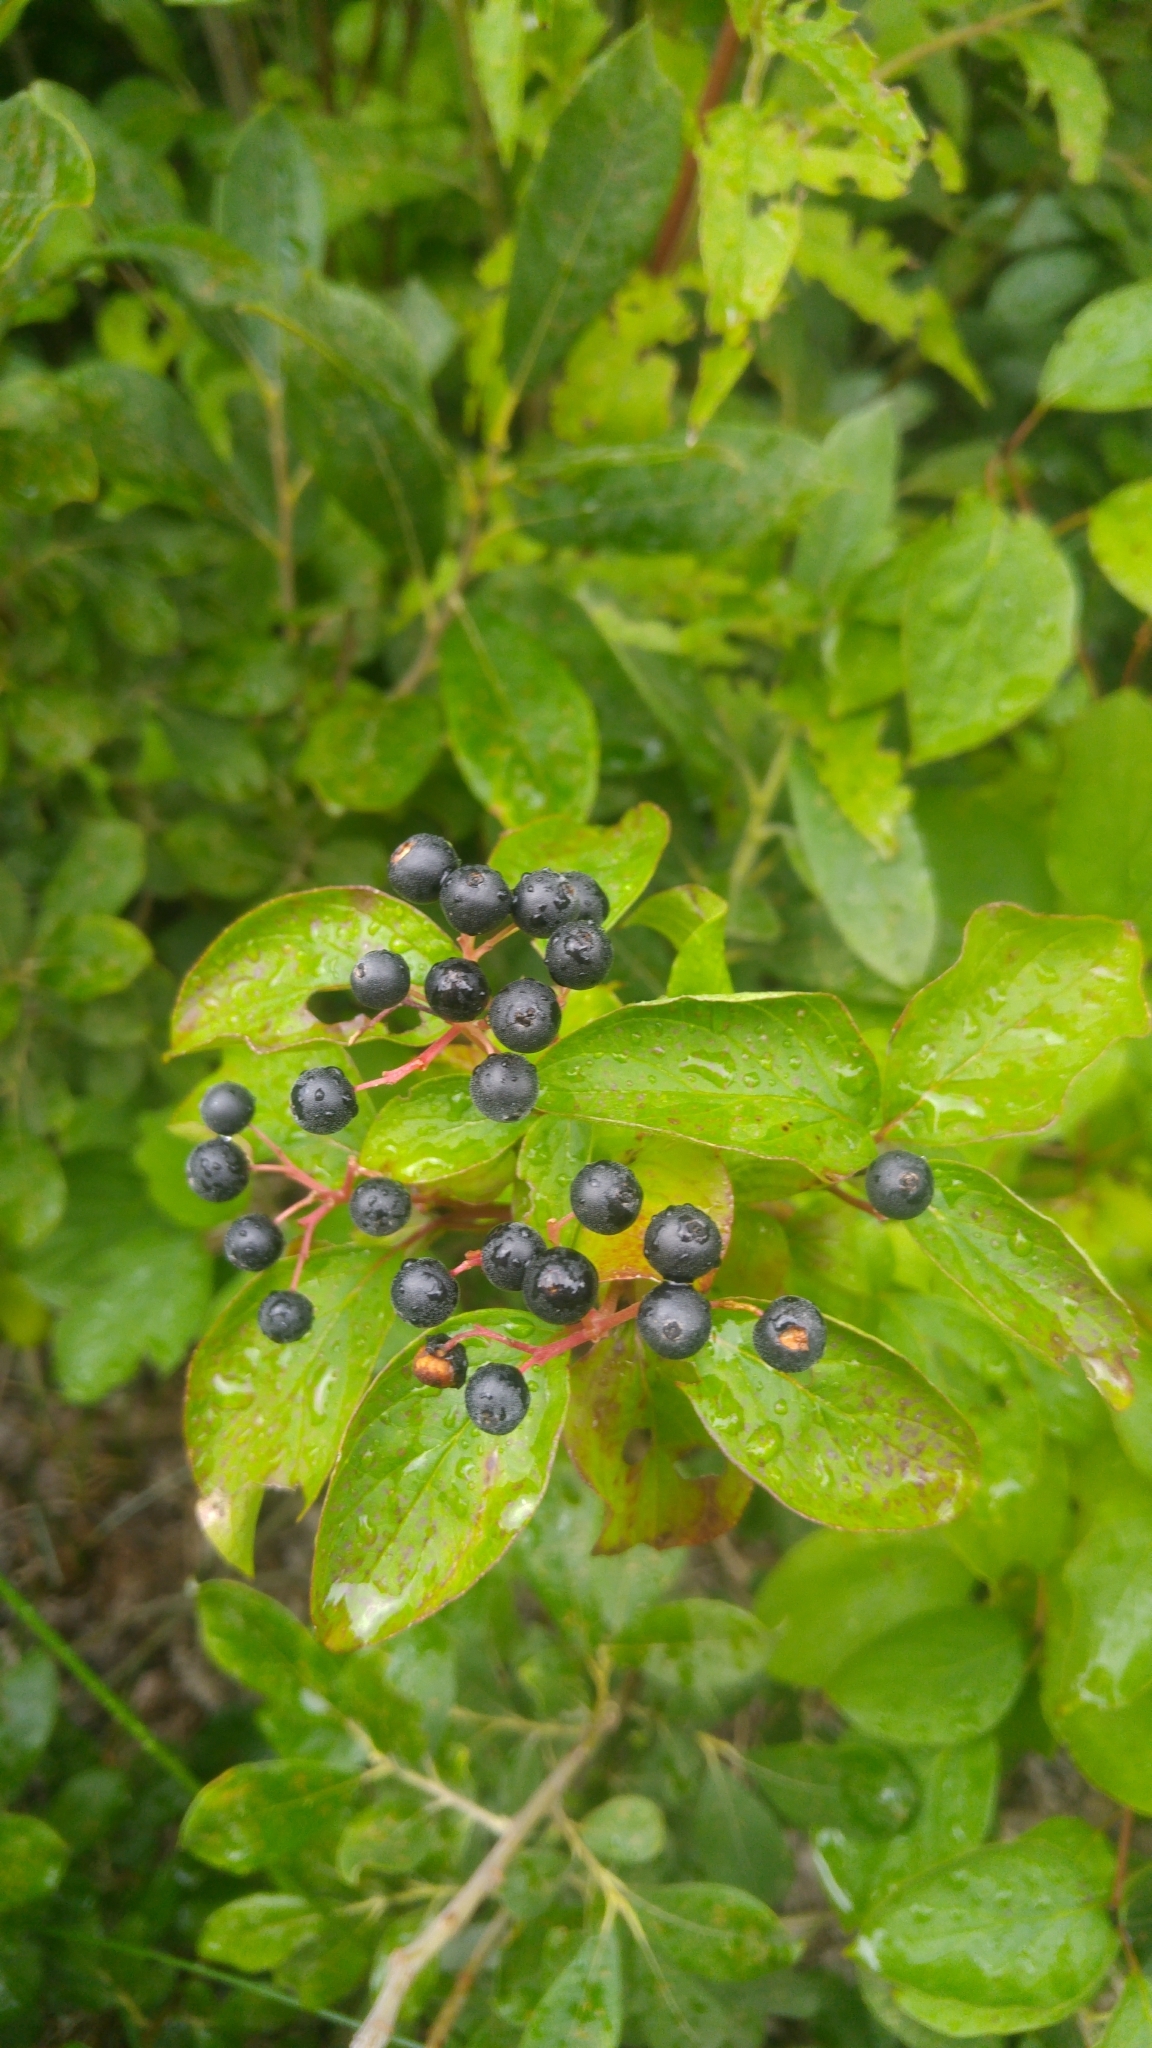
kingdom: Plantae
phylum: Tracheophyta
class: Magnoliopsida
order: Cornales
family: Cornaceae
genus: Cornus
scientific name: Cornus sanguinea
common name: Dogwood
